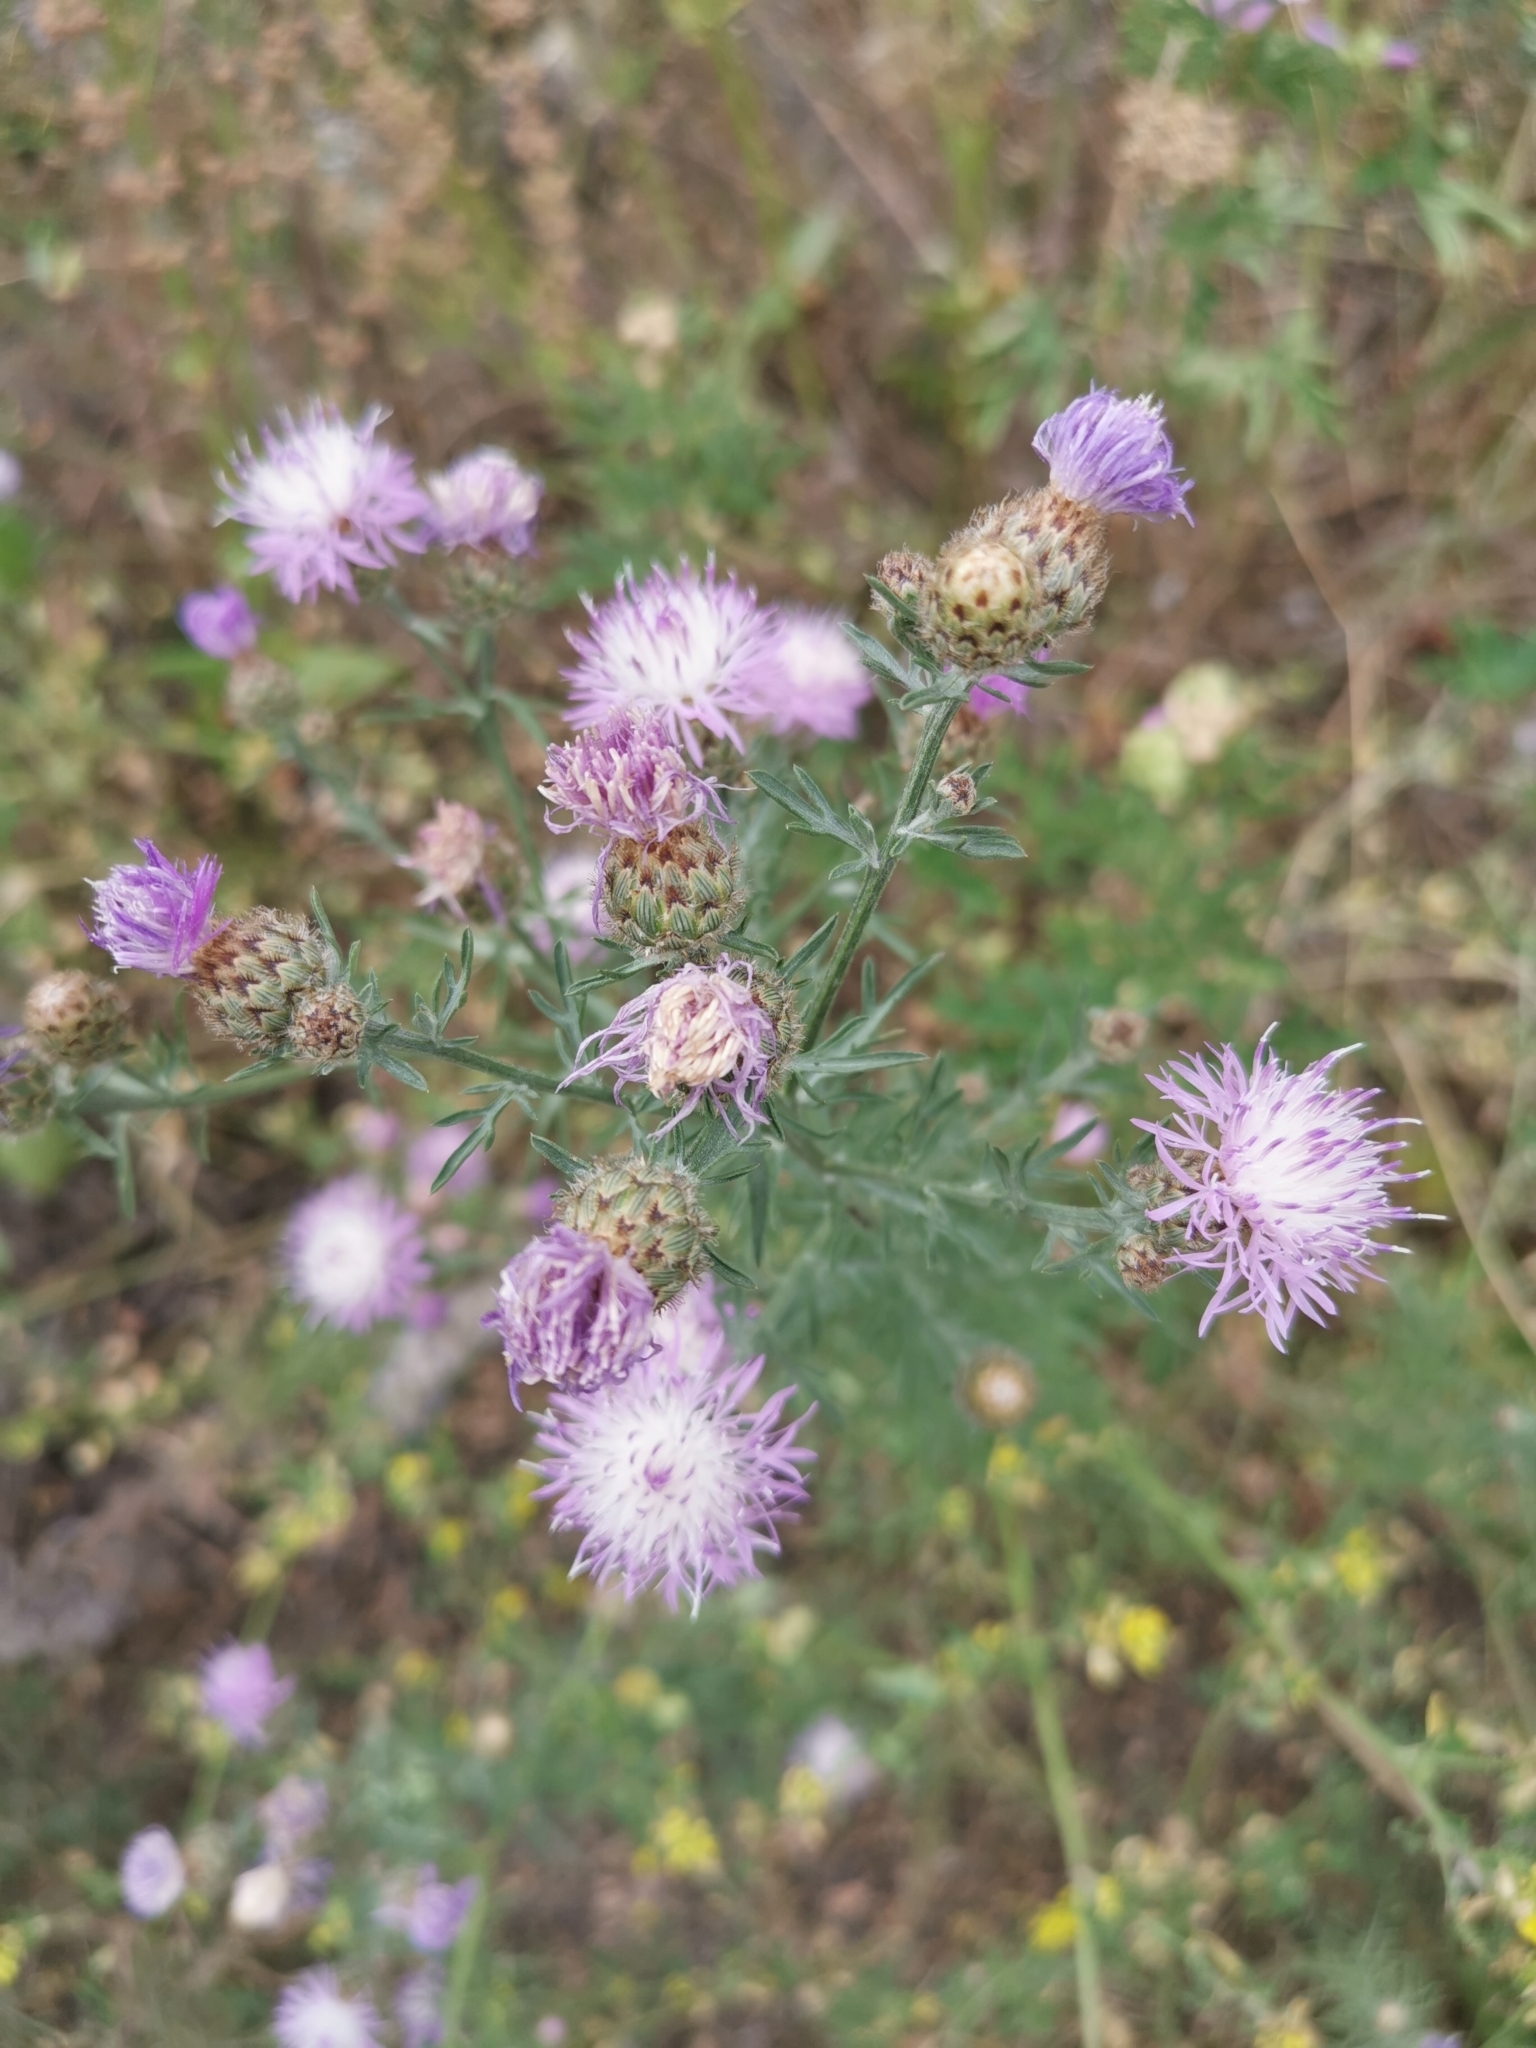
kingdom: Plantae
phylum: Tracheophyta
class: Magnoliopsida
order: Asterales
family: Asteraceae
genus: Centaurea
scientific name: Centaurea stoebe
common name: Spotted knapweed
